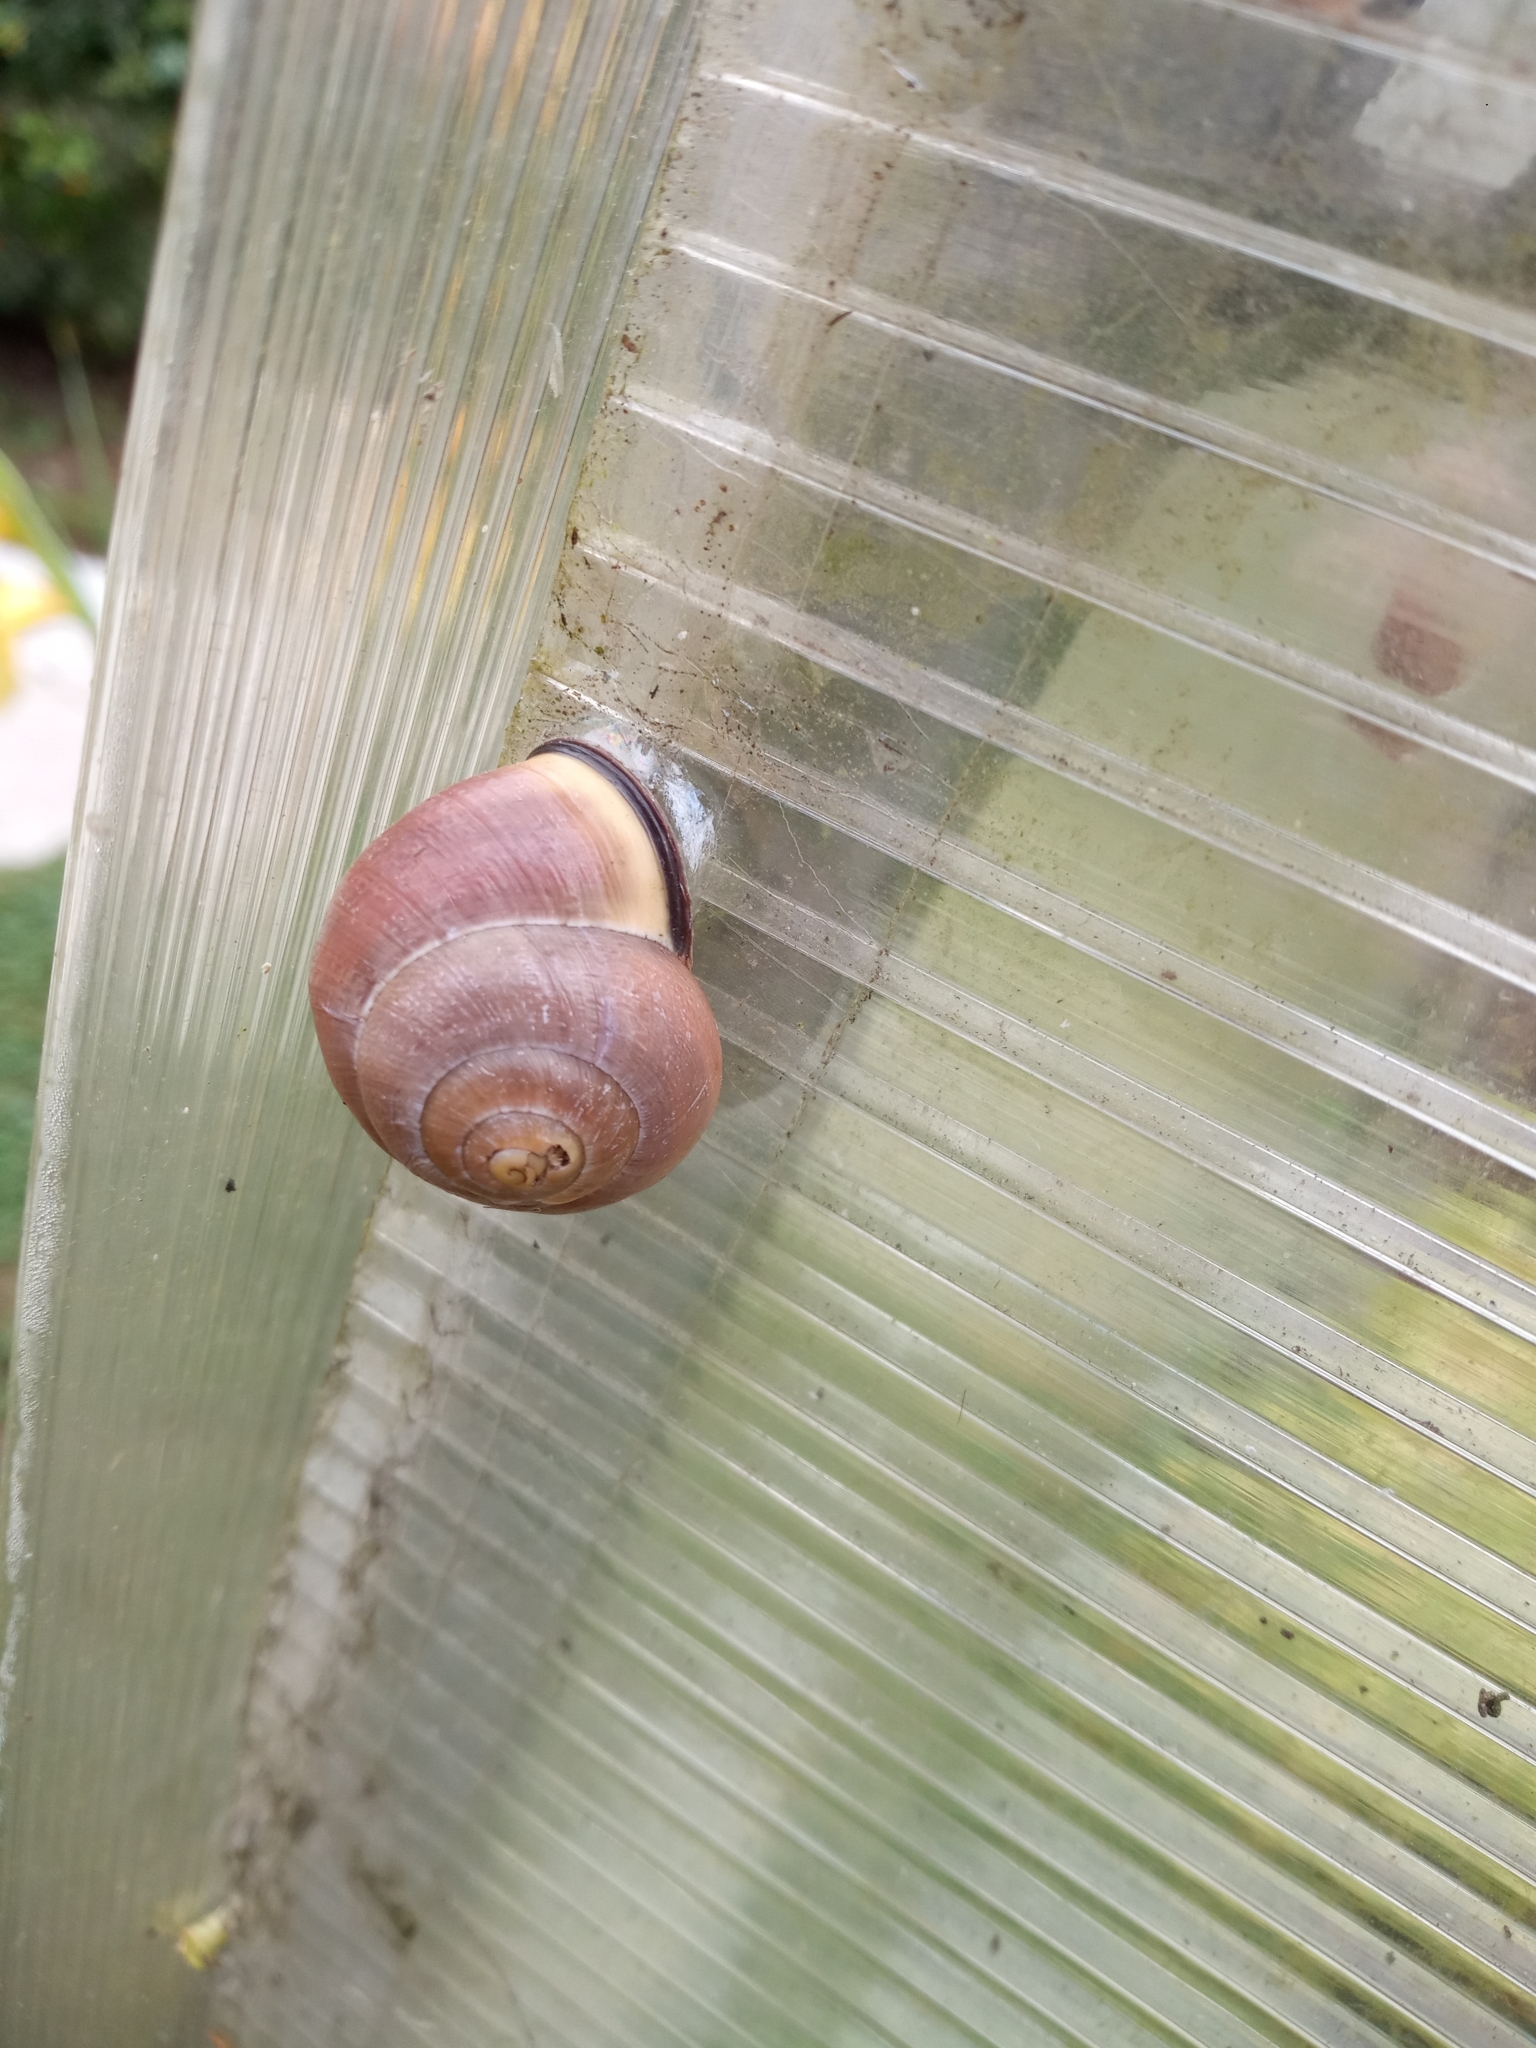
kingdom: Animalia
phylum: Mollusca
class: Gastropoda
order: Stylommatophora
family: Helicidae
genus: Cepaea
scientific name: Cepaea nemoralis
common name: Grovesnail
